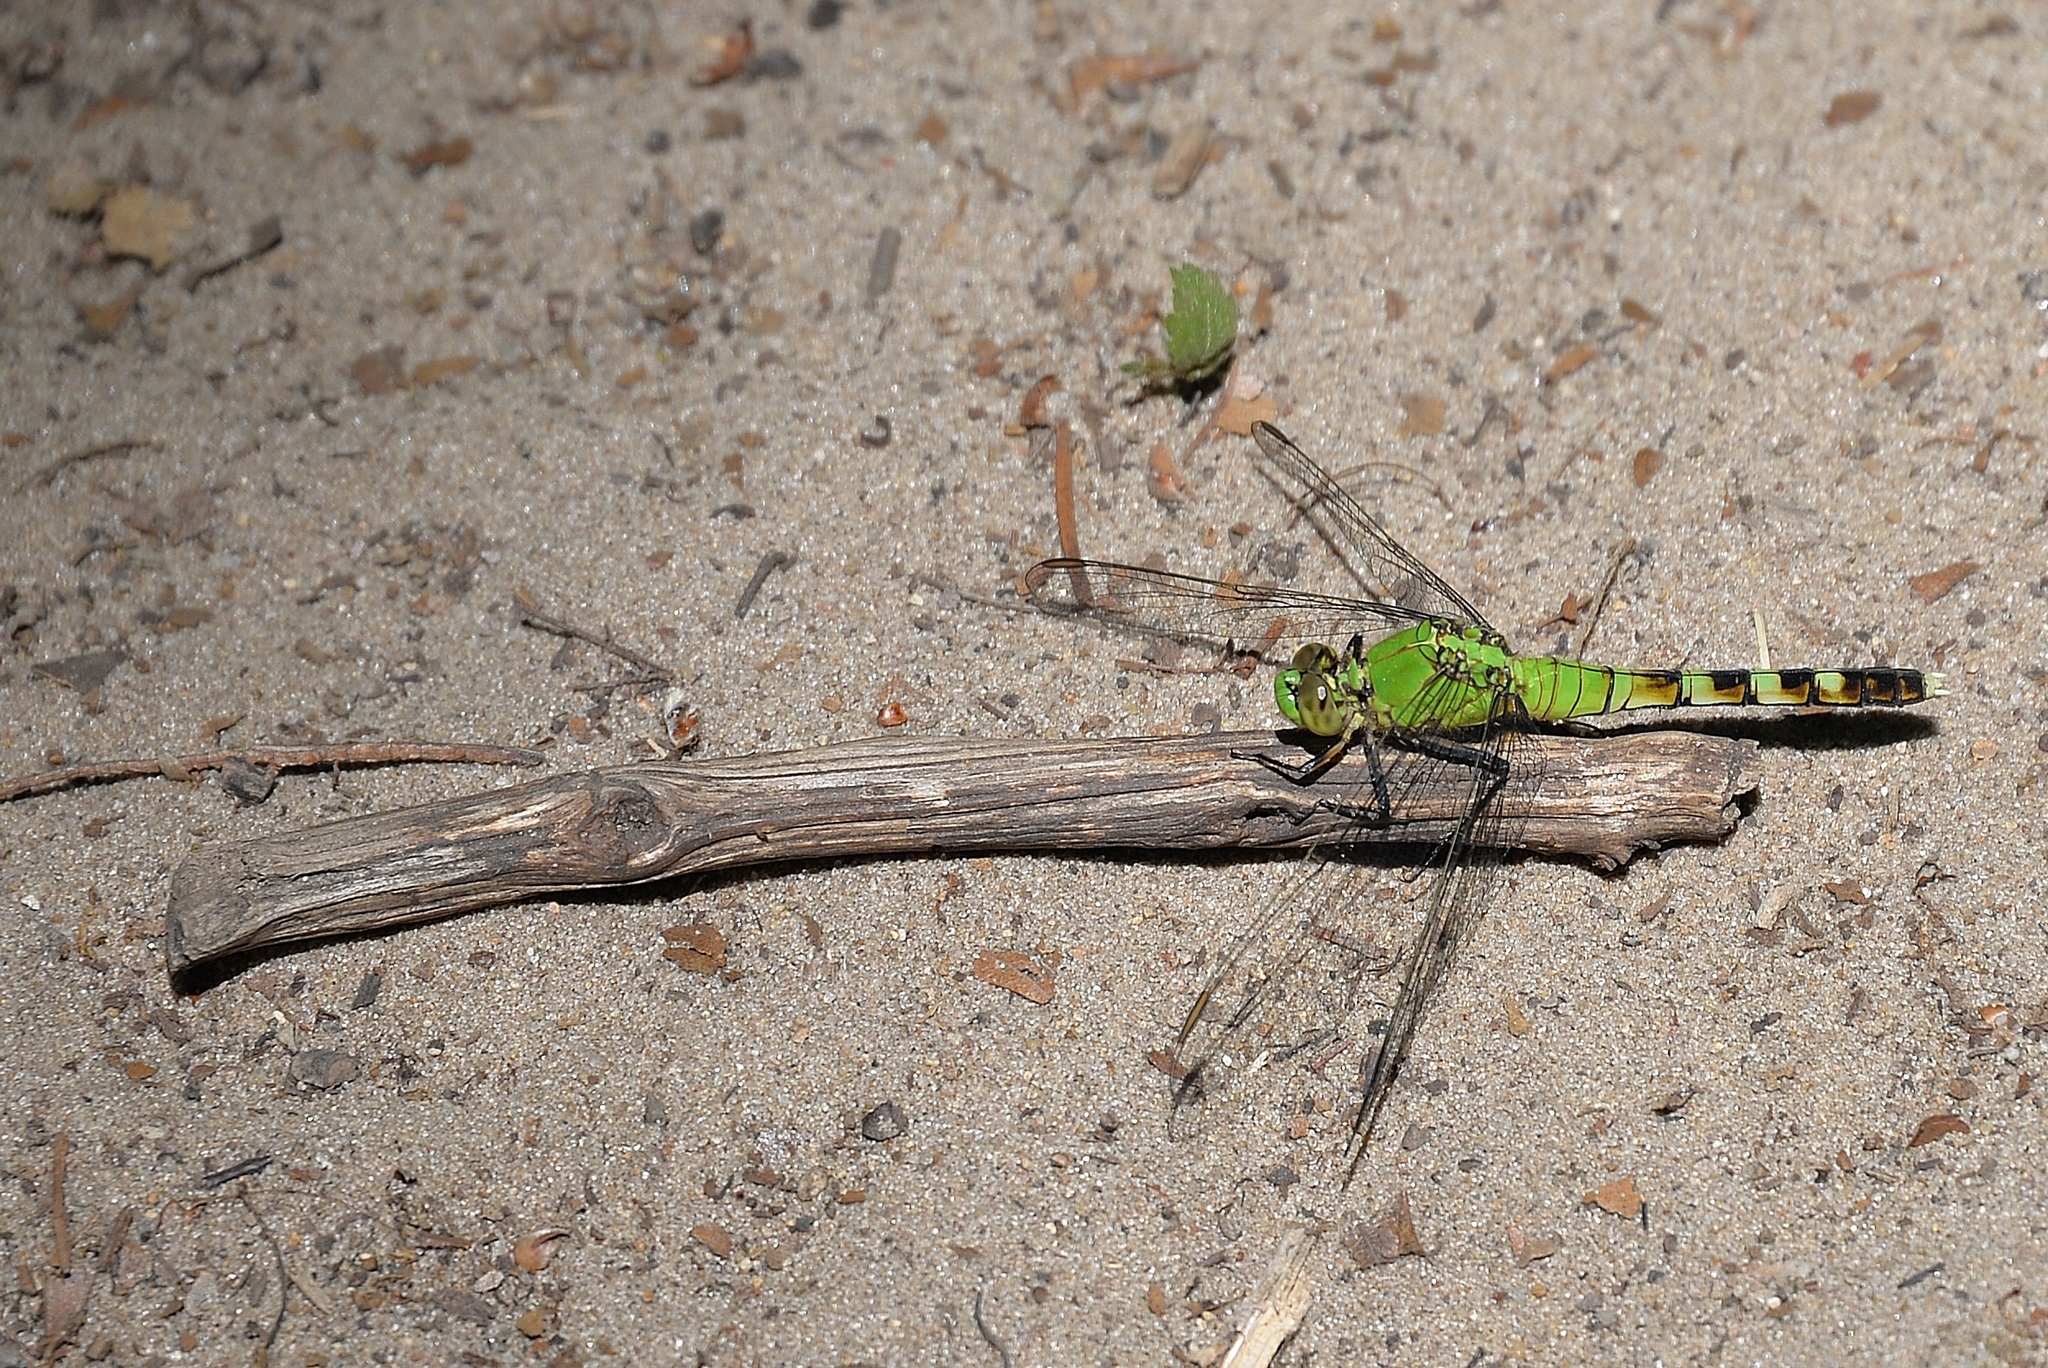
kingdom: Animalia
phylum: Arthropoda
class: Insecta
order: Odonata
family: Libellulidae
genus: Erythemis
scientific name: Erythemis simplicicollis
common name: Eastern pondhawk
